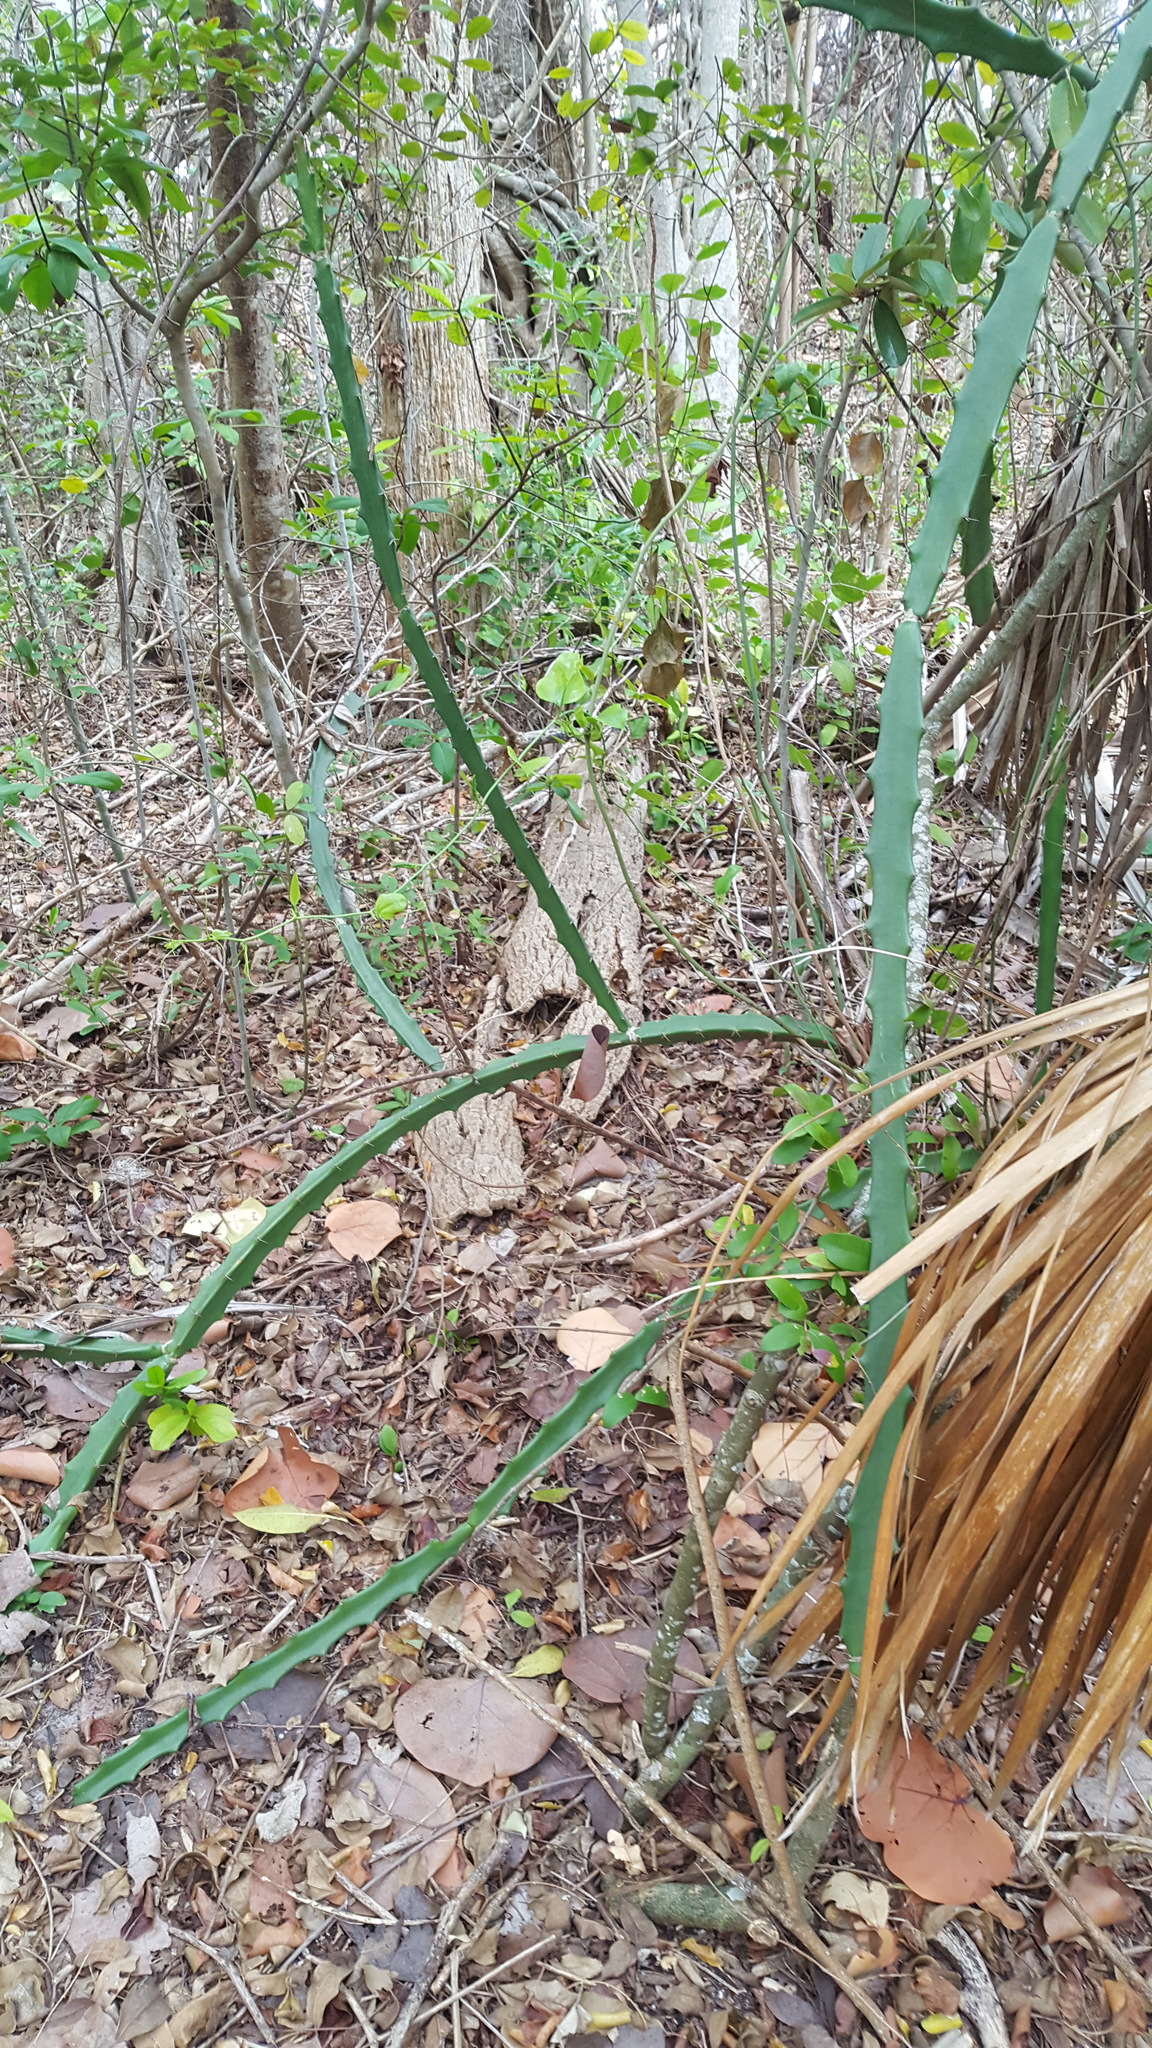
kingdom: Plantae
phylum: Tracheophyta
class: Magnoliopsida
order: Caryophyllales
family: Cactaceae
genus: Acanthocereus
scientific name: Acanthocereus tetragonus
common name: Triangle cactus
